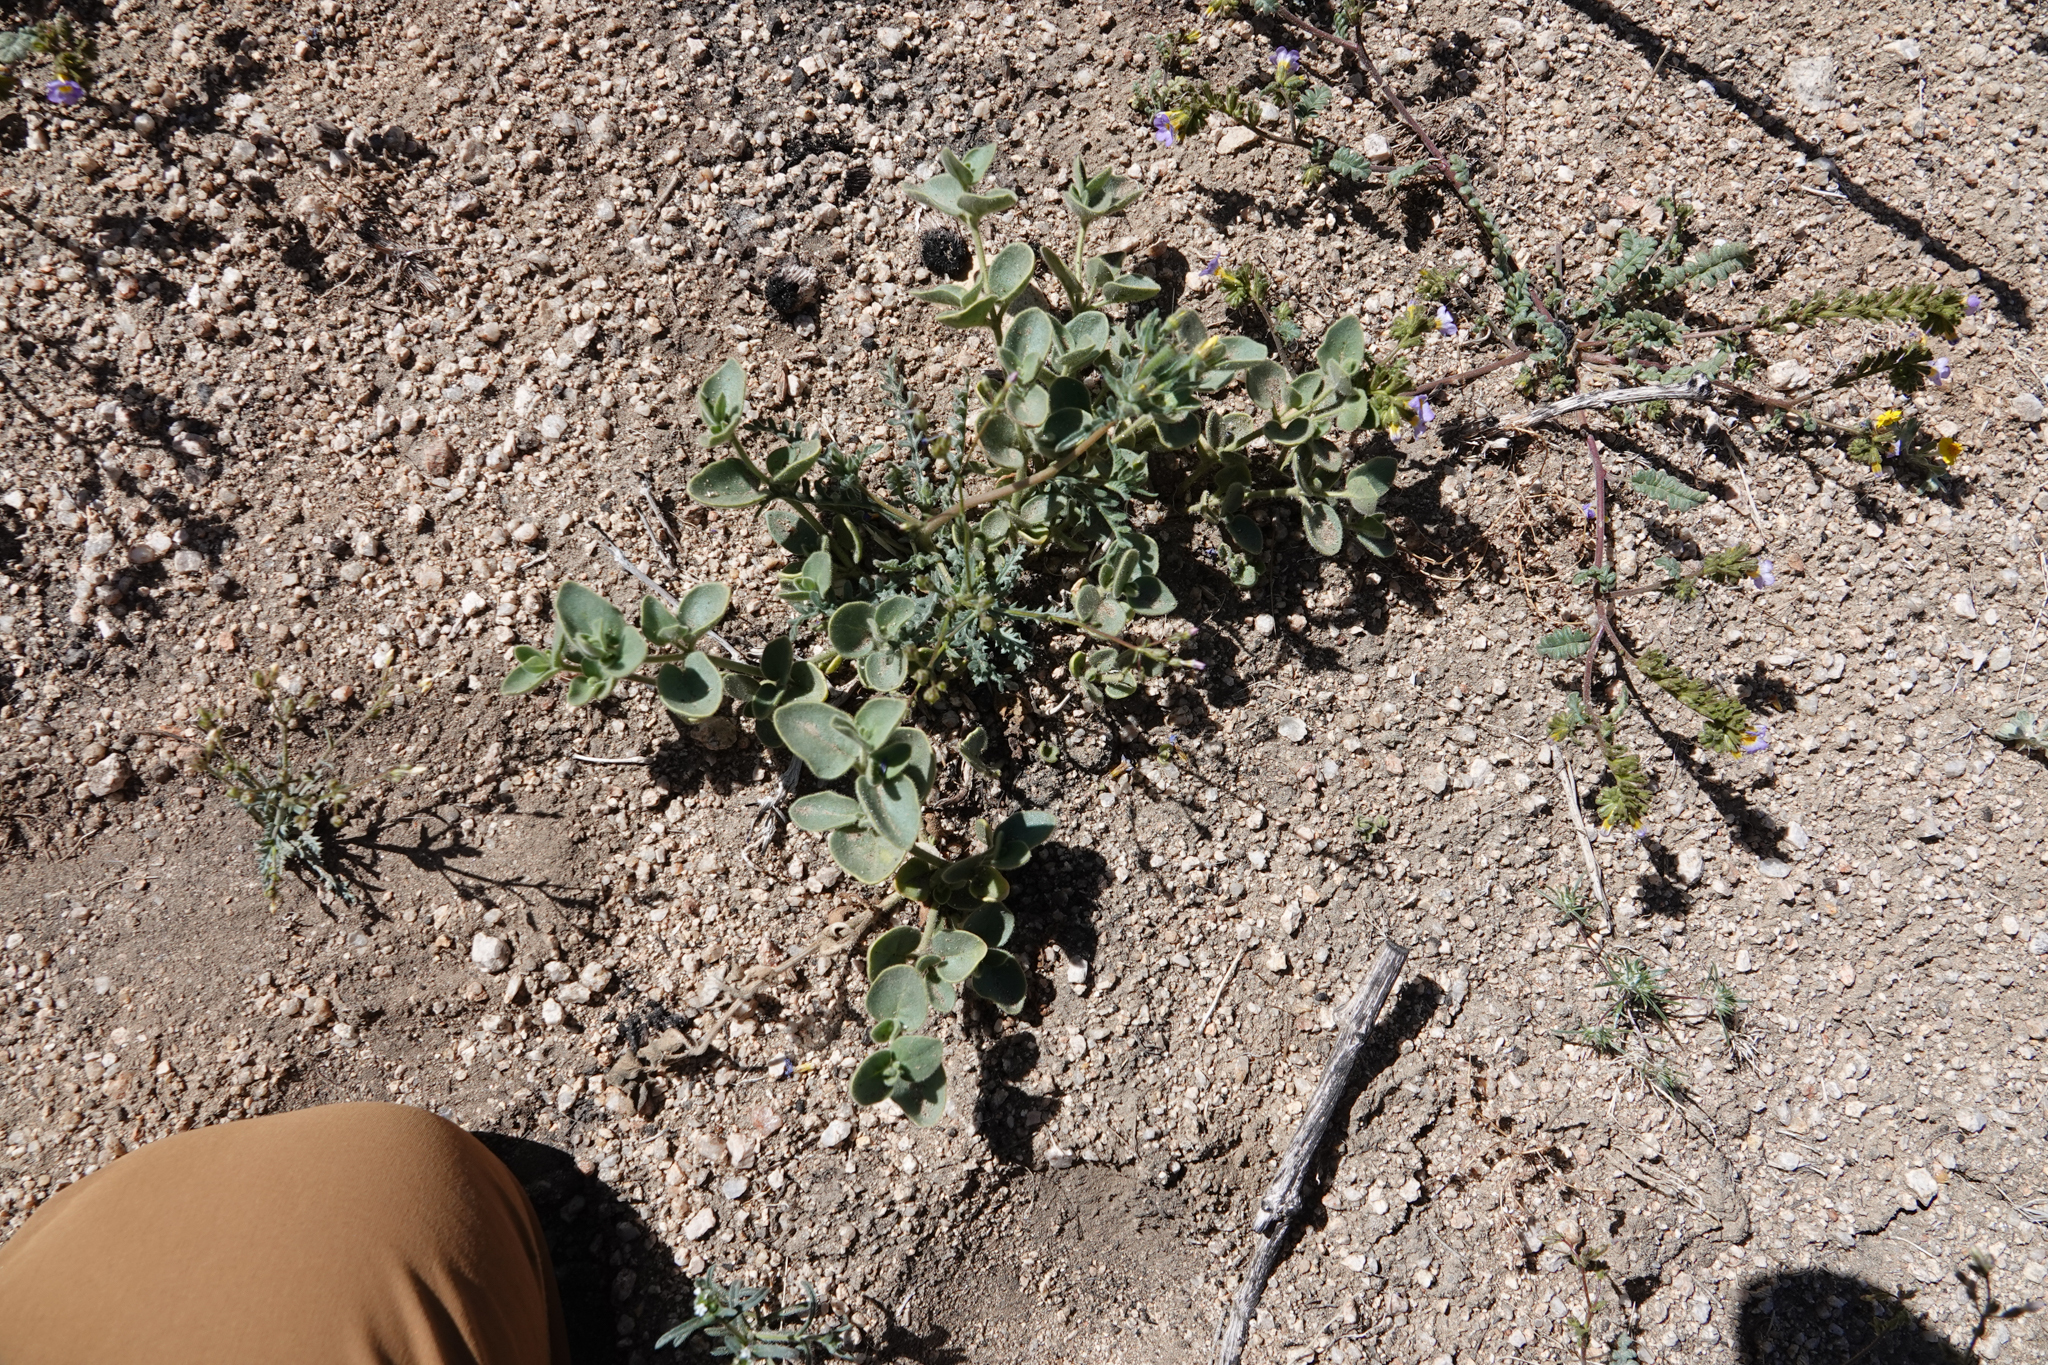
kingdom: Plantae
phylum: Tracheophyta
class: Magnoliopsida
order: Caryophyllales
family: Nyctaginaceae
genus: Mirabilis
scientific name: Mirabilis laevis
